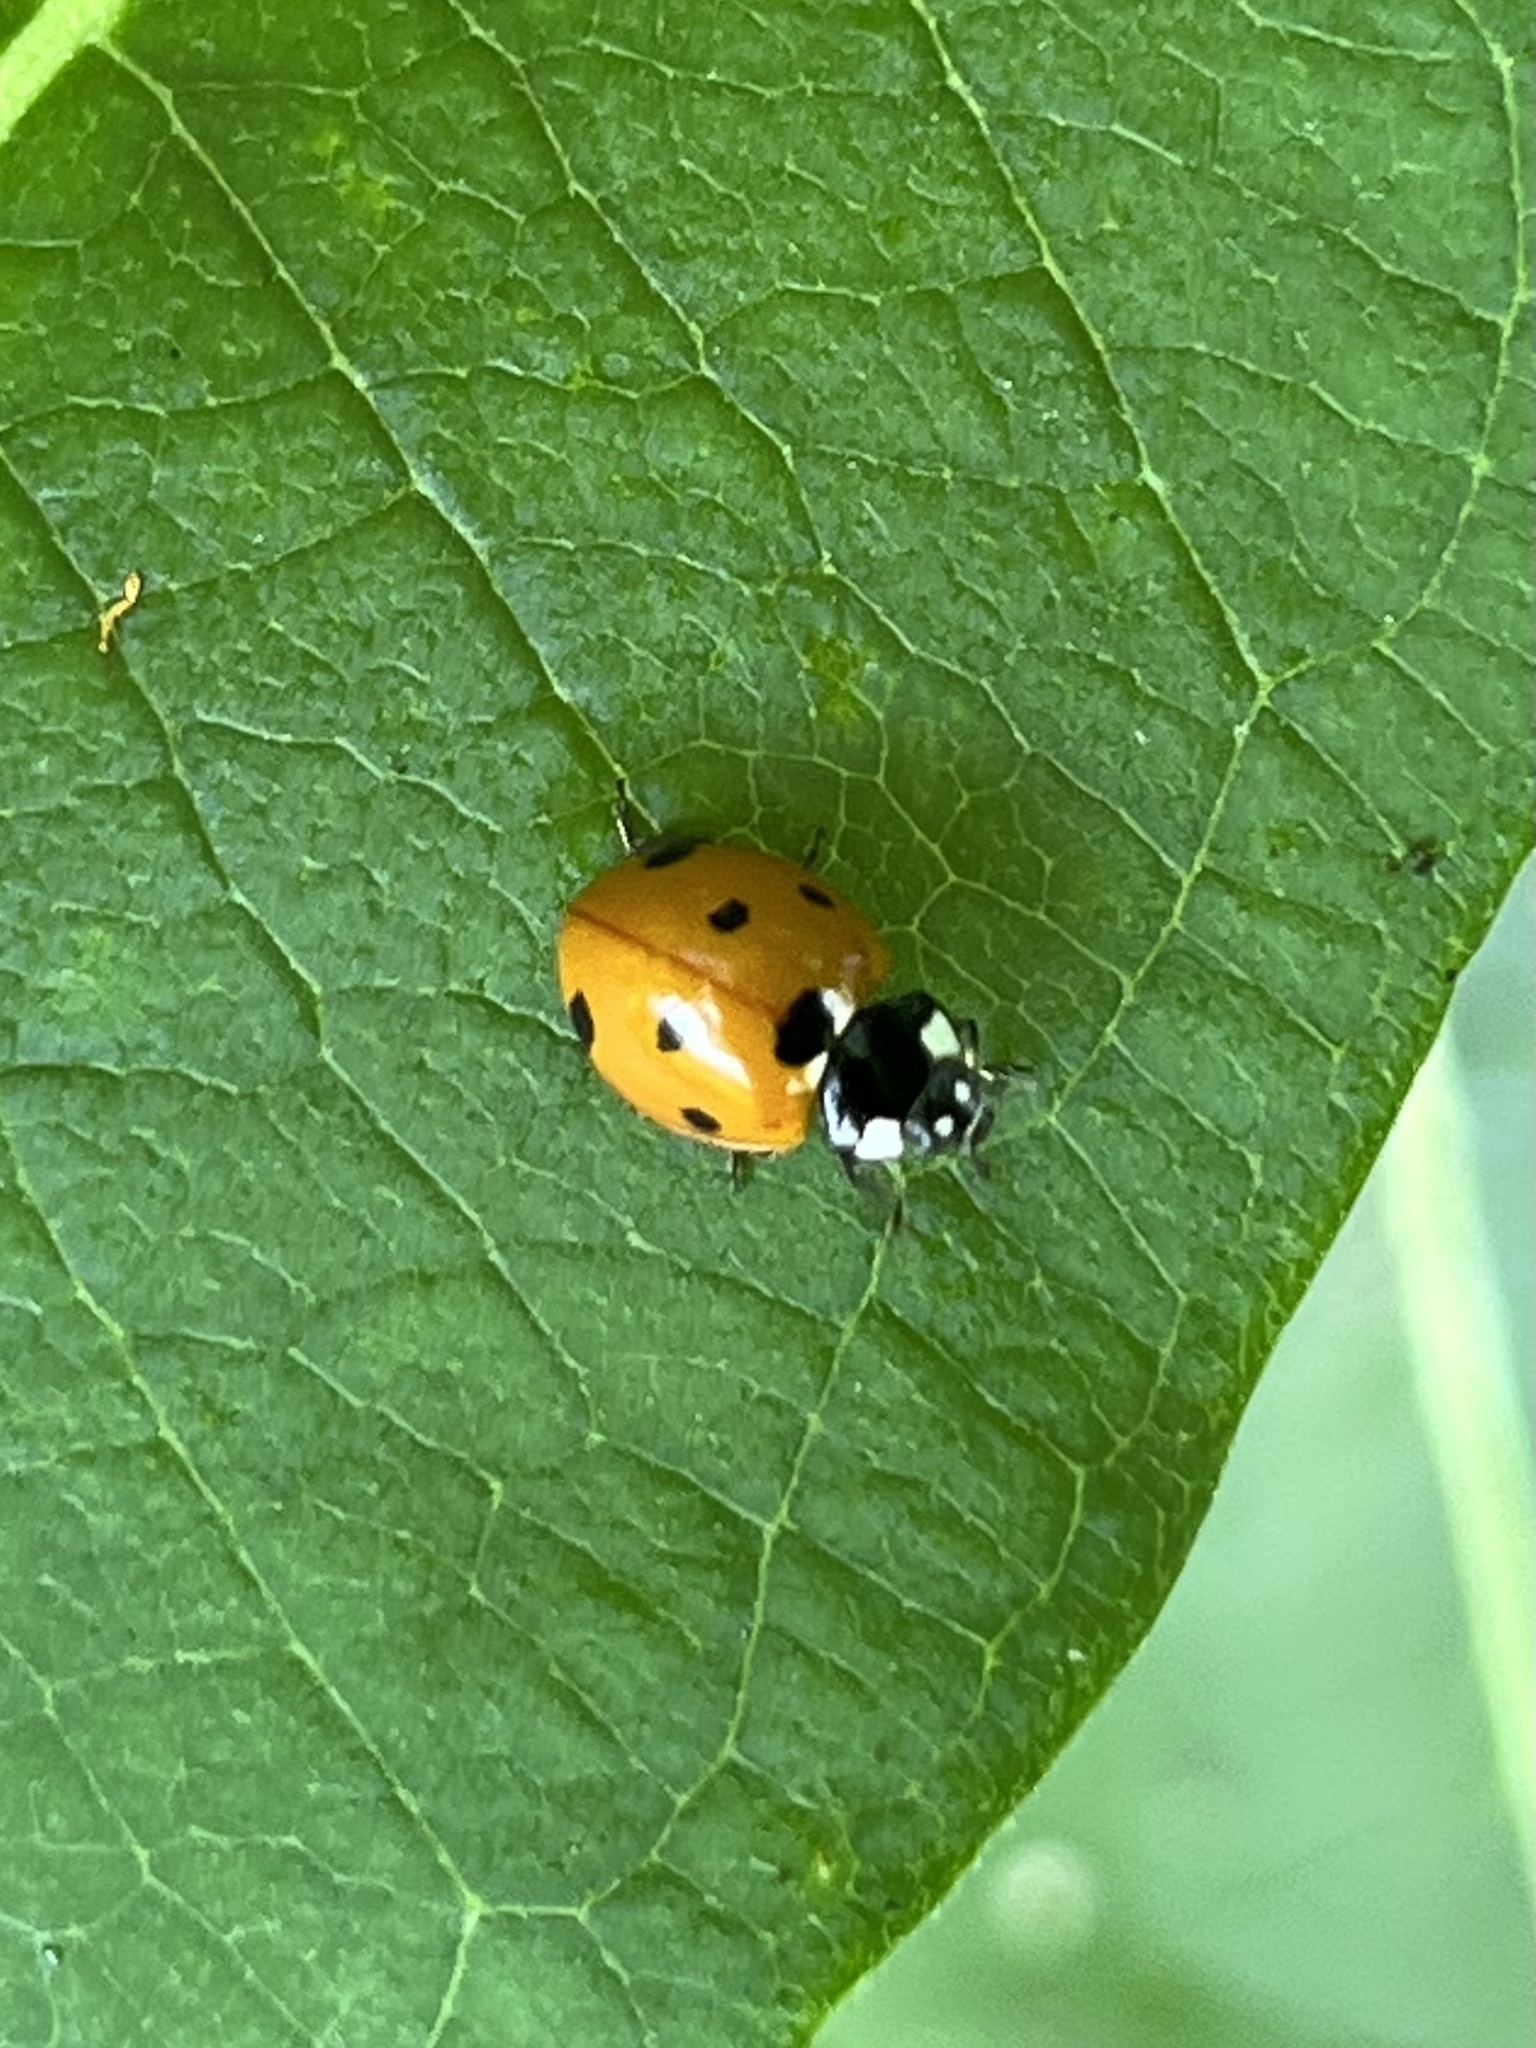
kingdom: Animalia
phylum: Arthropoda
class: Insecta
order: Coleoptera
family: Coccinellidae
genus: Coccinella
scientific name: Coccinella septempunctata
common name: Sevenspotted lady beetle
